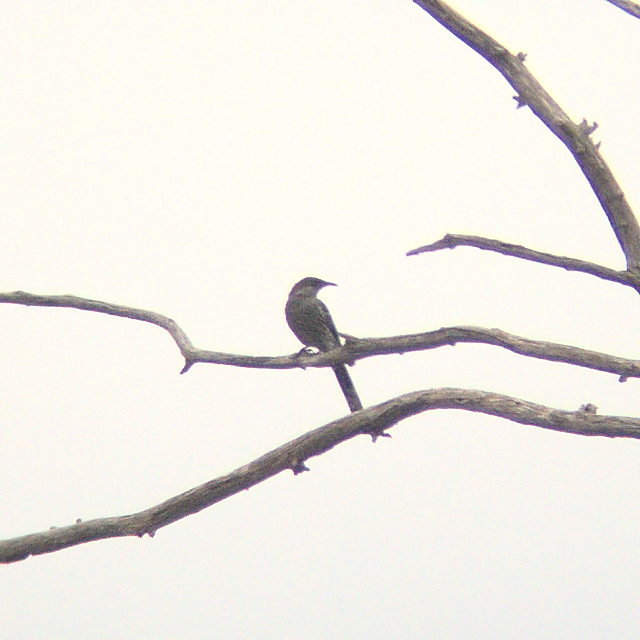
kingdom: Animalia
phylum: Chordata
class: Aves
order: Passeriformes
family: Meliphagidae
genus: Anthochaera
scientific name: Anthochaera chrysoptera
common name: Little wattlebird
